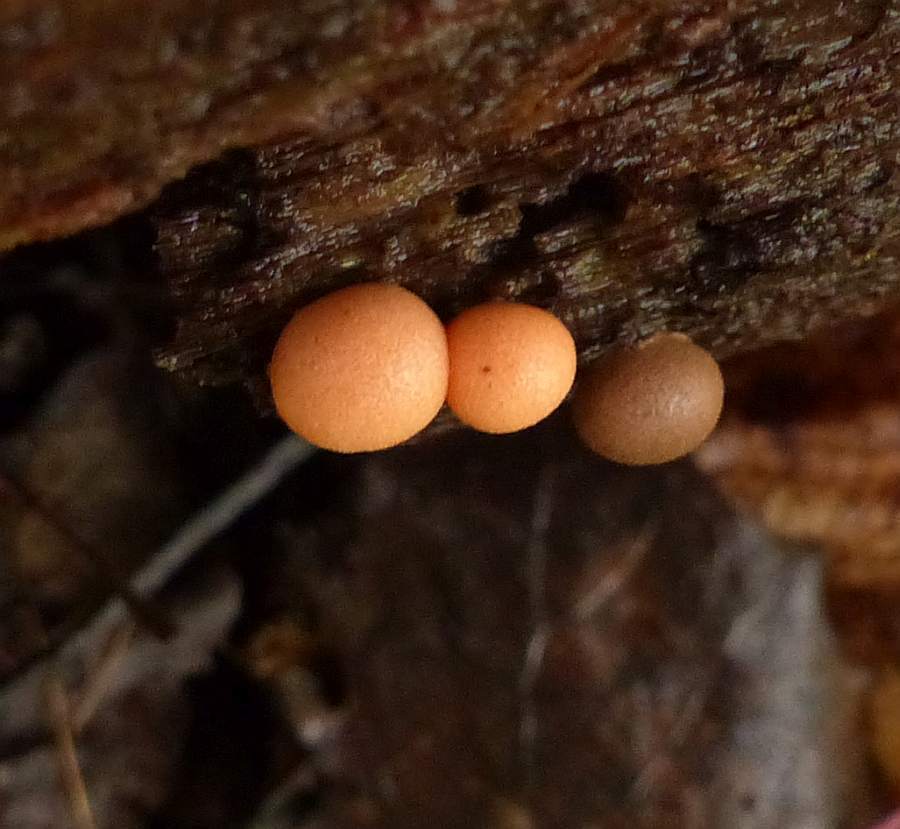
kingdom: Protozoa
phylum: Mycetozoa
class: Myxomycetes
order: Cribrariales
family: Tubiferaceae
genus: Lycogala
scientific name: Lycogala epidendrum
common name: Wolf's milk
